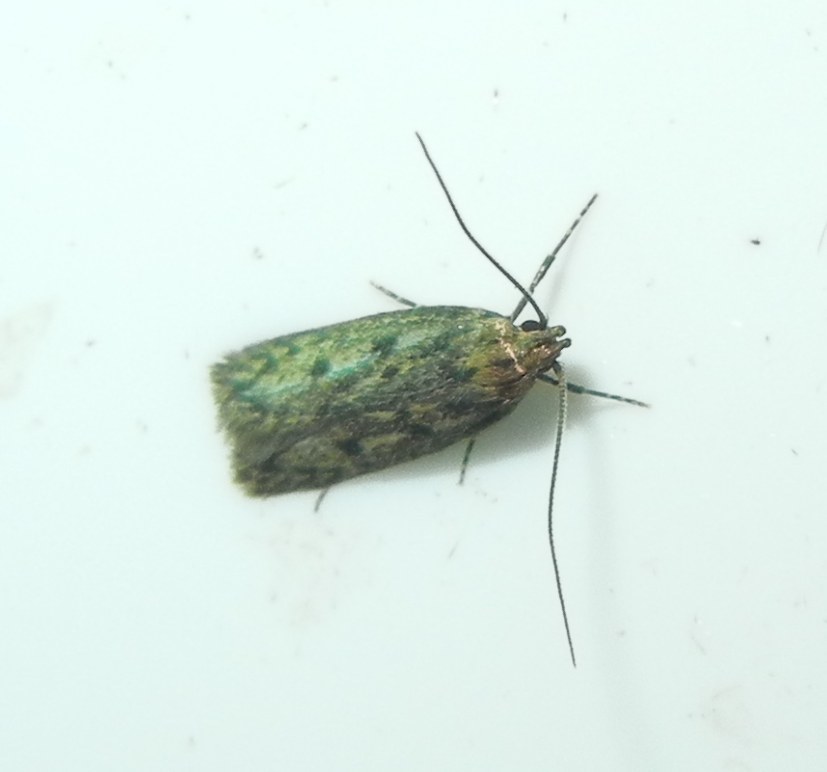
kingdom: Animalia
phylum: Arthropoda
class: Insecta
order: Lepidoptera
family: Oecophoridae
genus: Hofmannophila
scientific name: Hofmannophila pseudospretella
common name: Brown house moth
